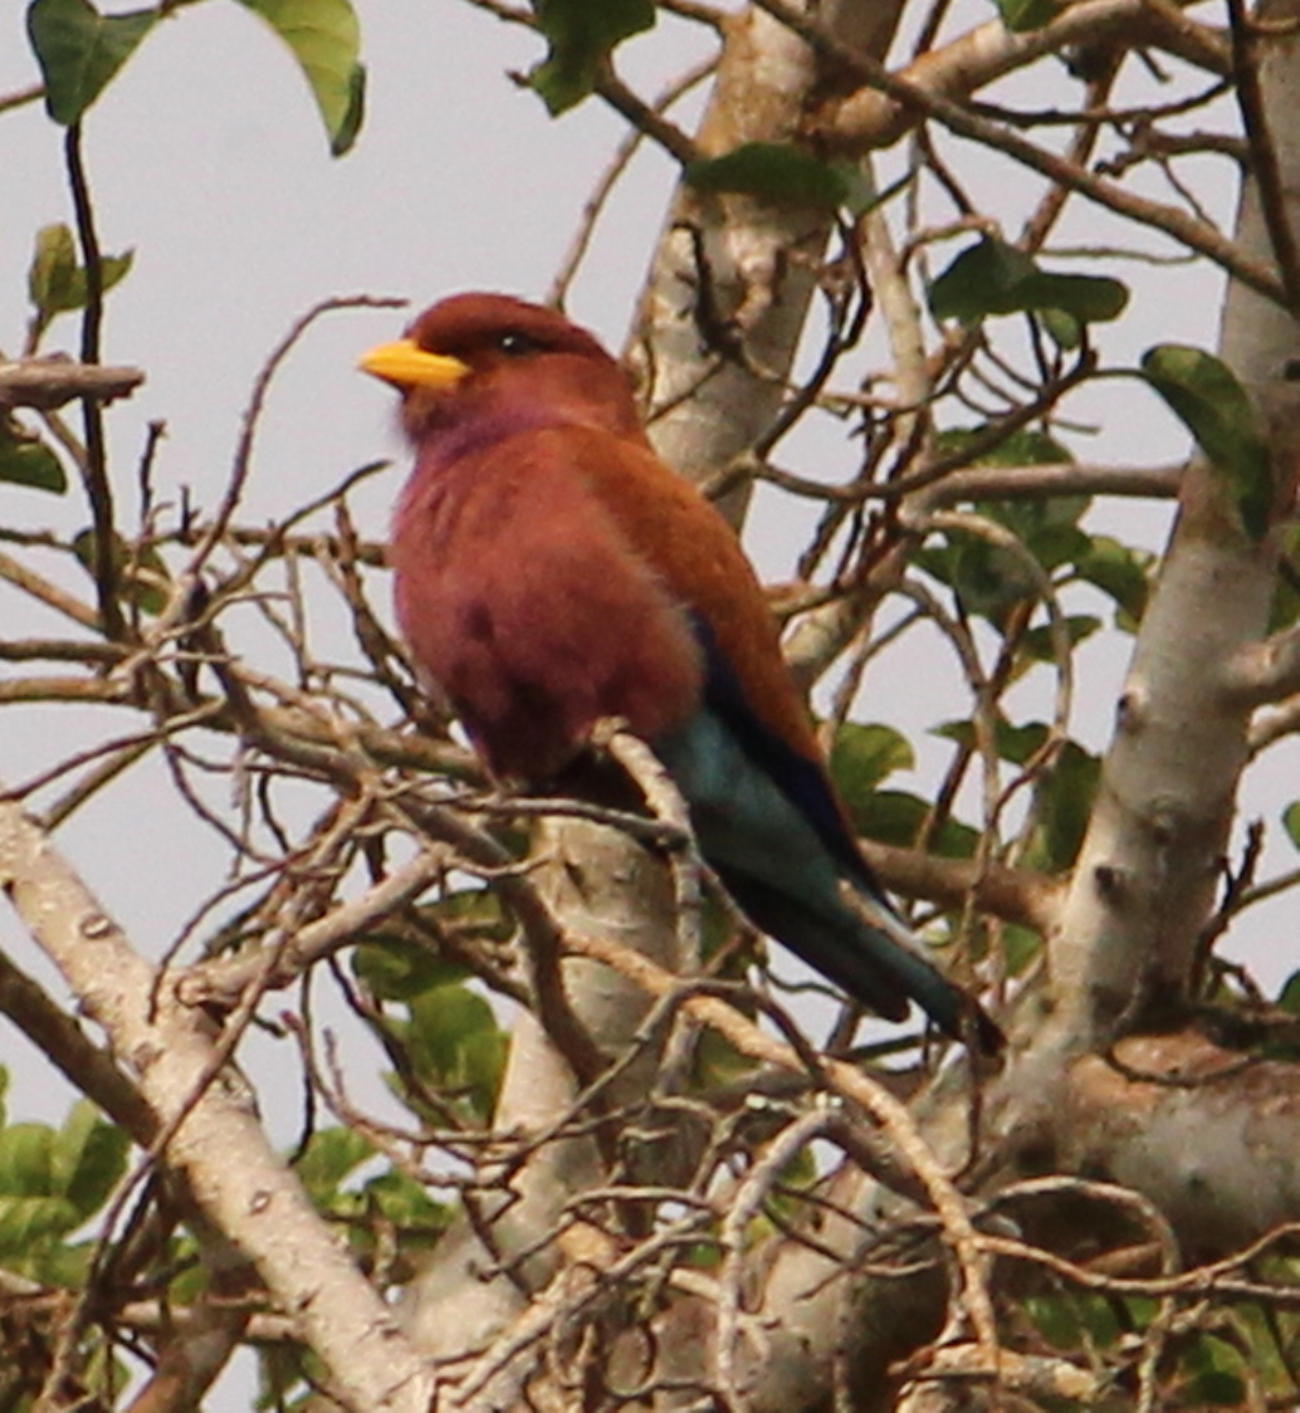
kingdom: Animalia
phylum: Chordata
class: Aves
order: Coraciiformes
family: Coraciidae
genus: Eurystomus
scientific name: Eurystomus glaucurus
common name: Broad-billed roller
